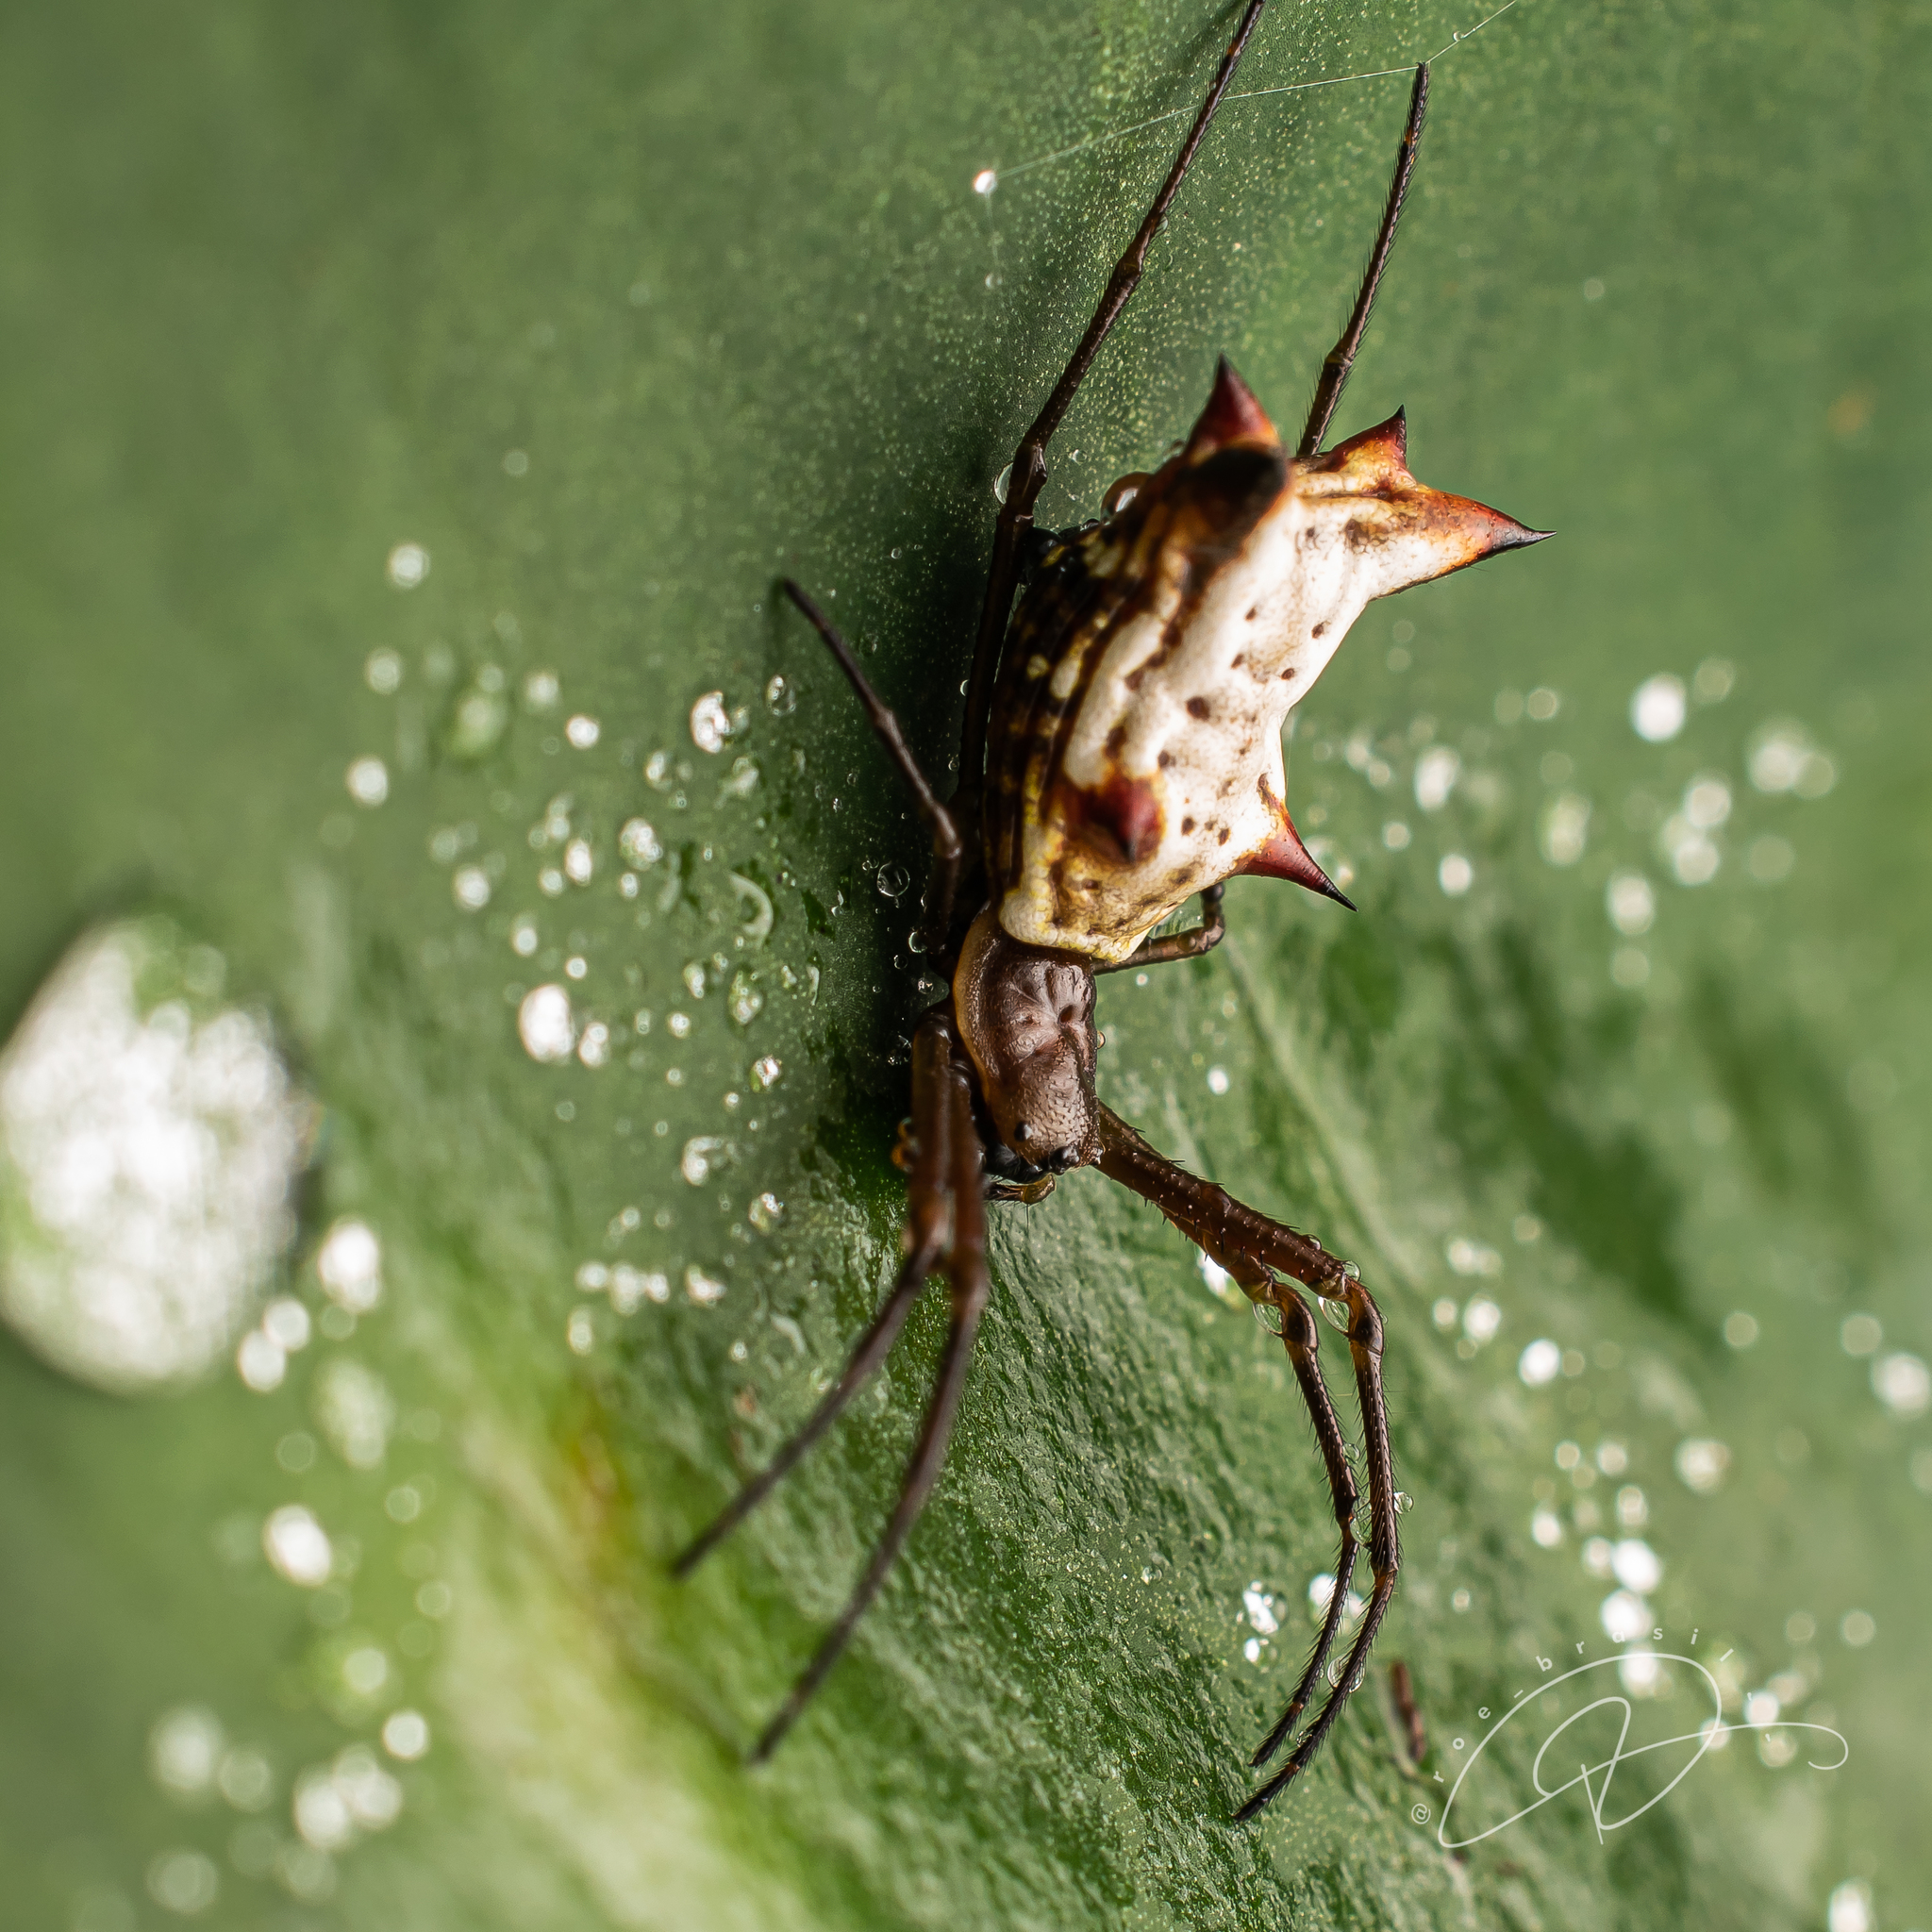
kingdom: Animalia
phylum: Arthropoda
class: Arachnida
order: Araneae
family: Araneidae
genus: Micrathena
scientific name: Micrathena nigrichelis
